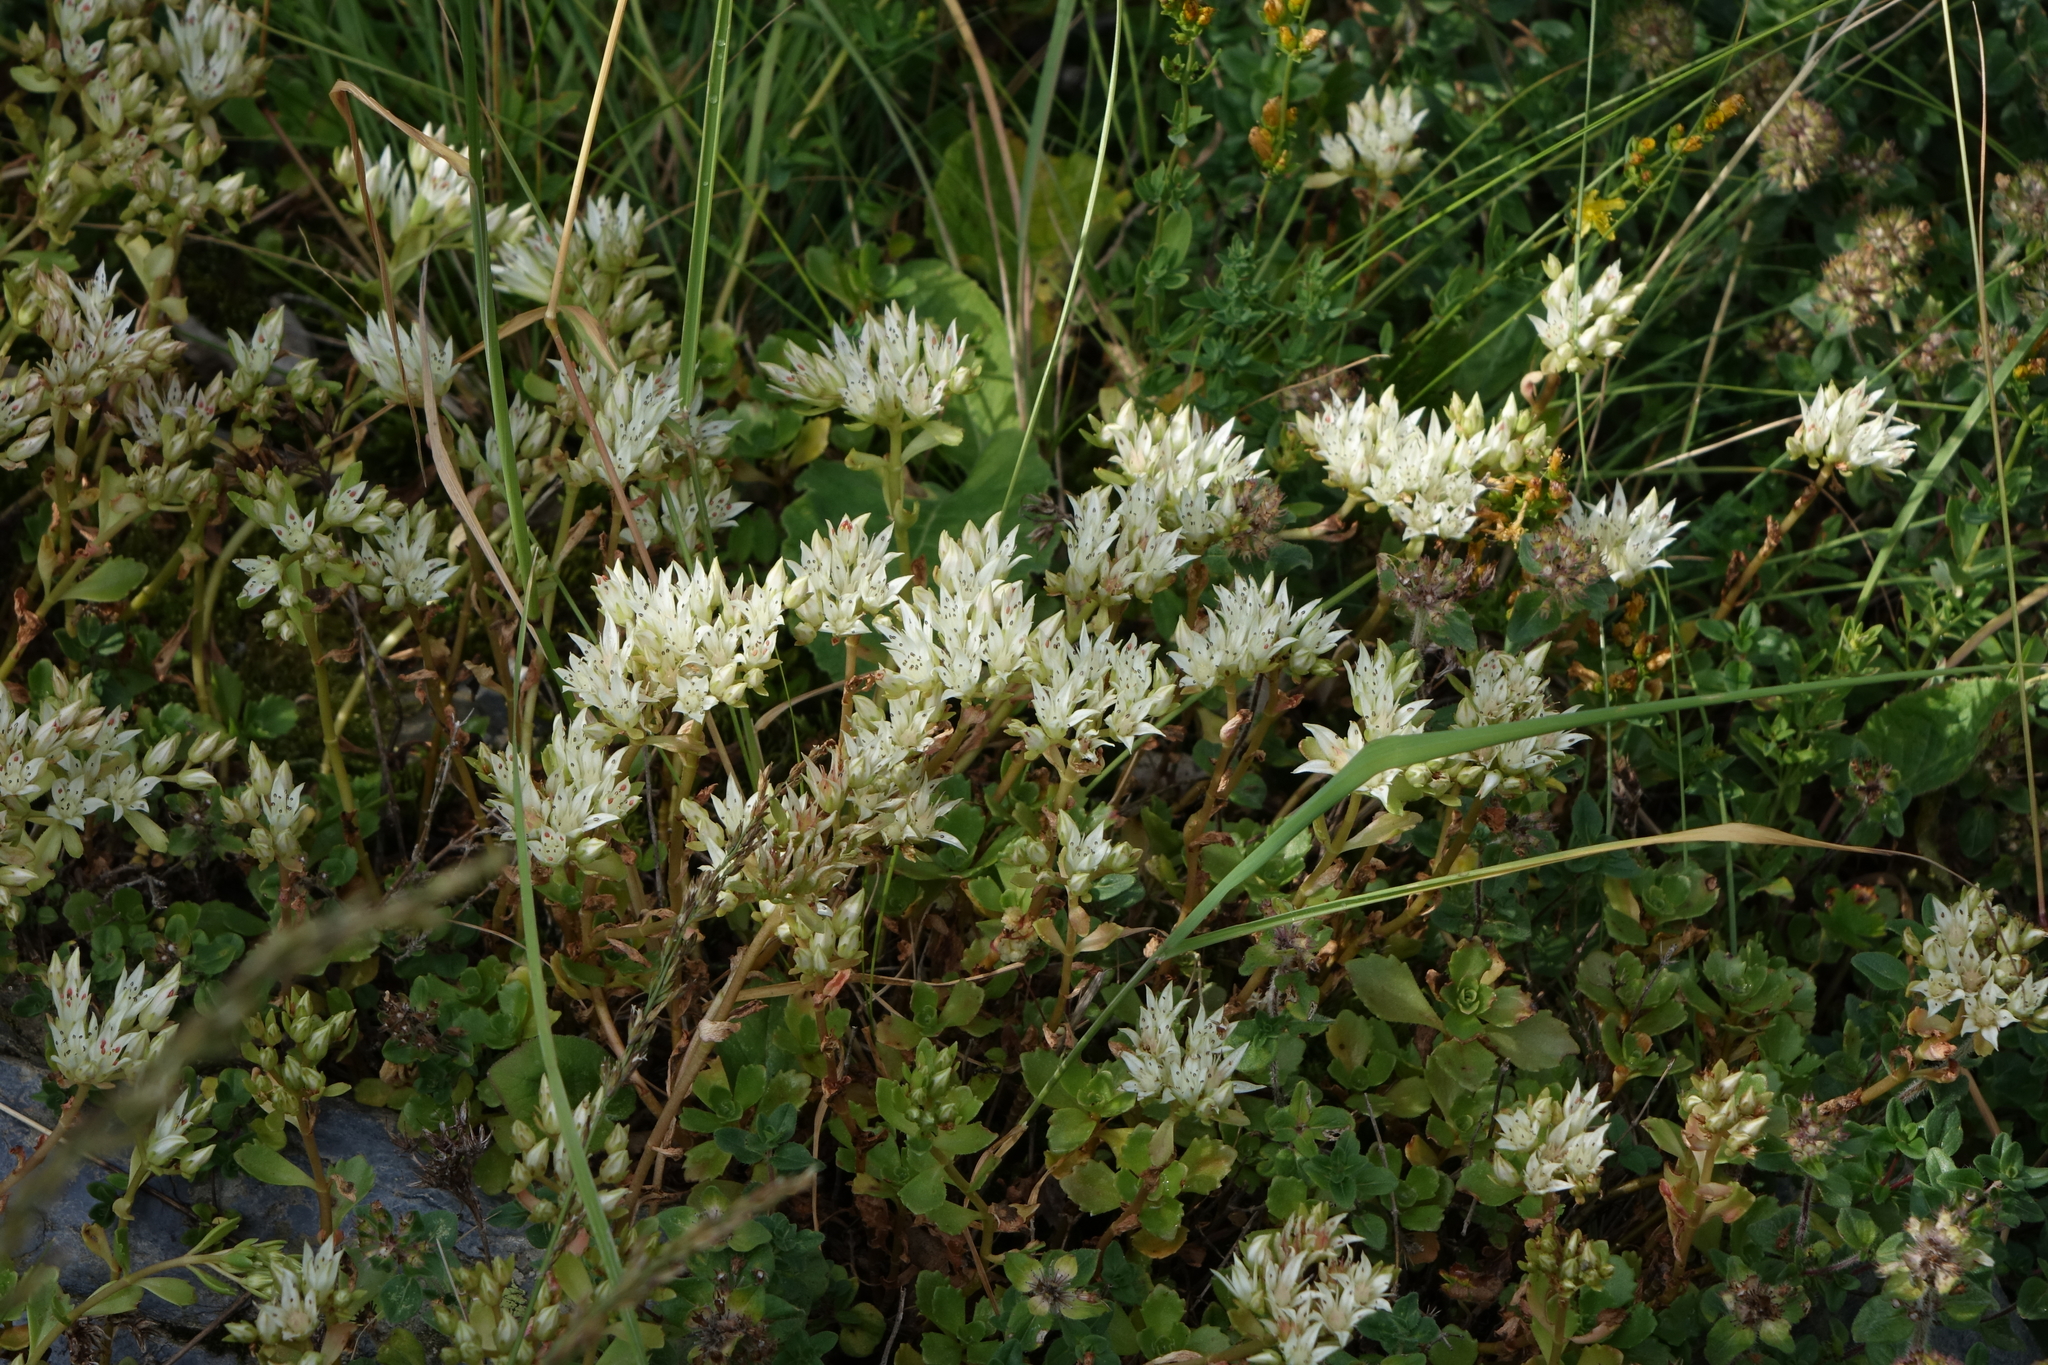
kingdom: Plantae
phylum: Tracheophyta
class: Magnoliopsida
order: Saxifragales
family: Crassulaceae
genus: Phedimus
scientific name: Phedimus spurius
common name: Caucasian stonecrop
